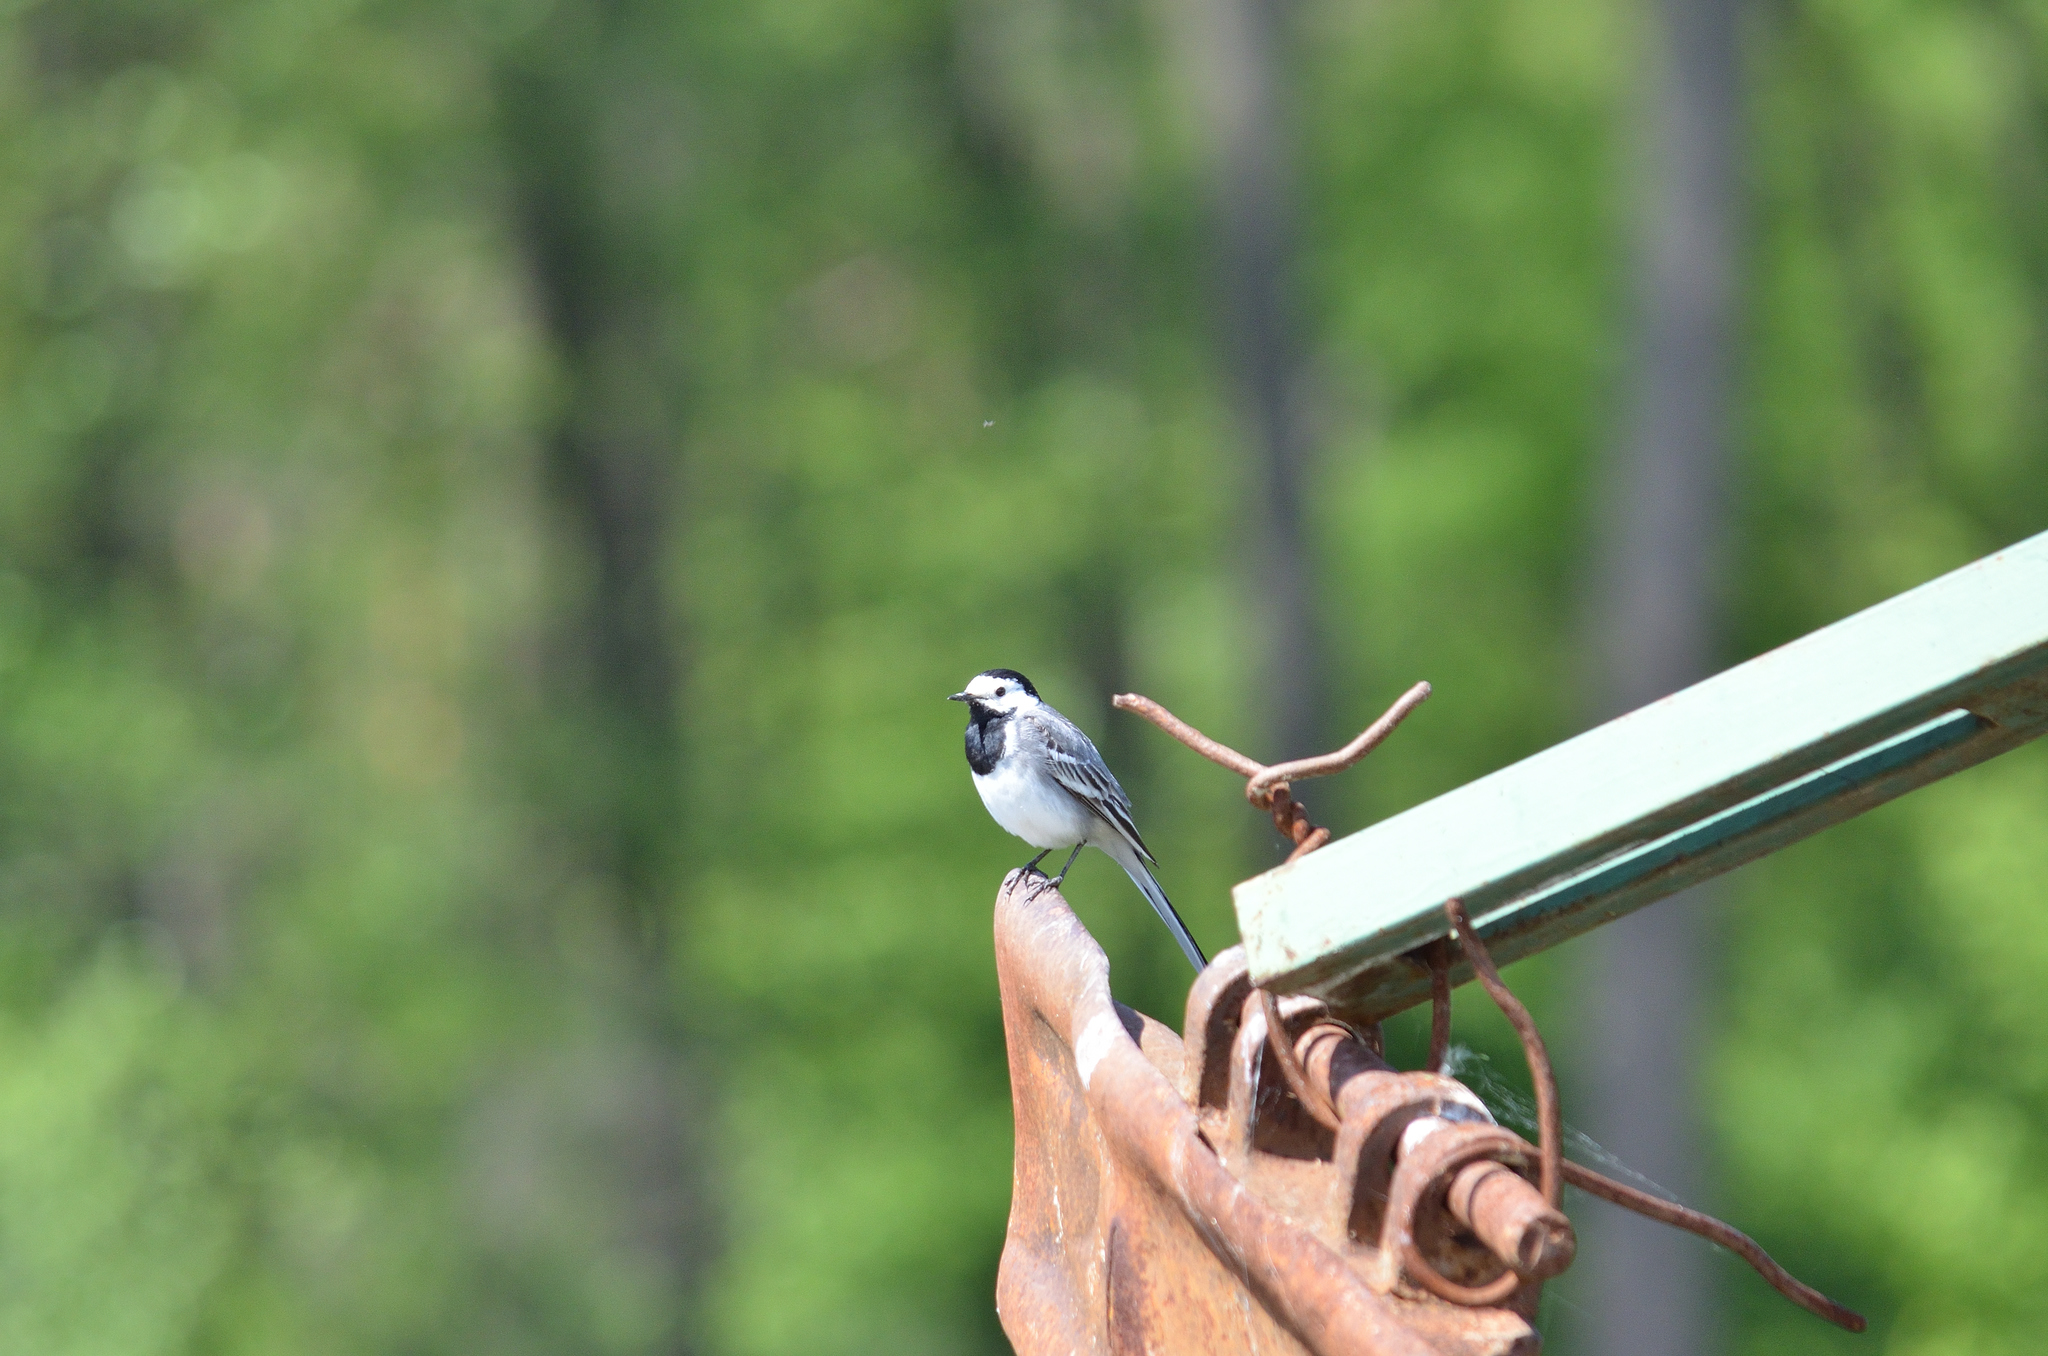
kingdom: Animalia
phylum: Chordata
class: Aves
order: Passeriformes
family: Motacillidae
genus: Motacilla
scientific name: Motacilla alba
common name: White wagtail
